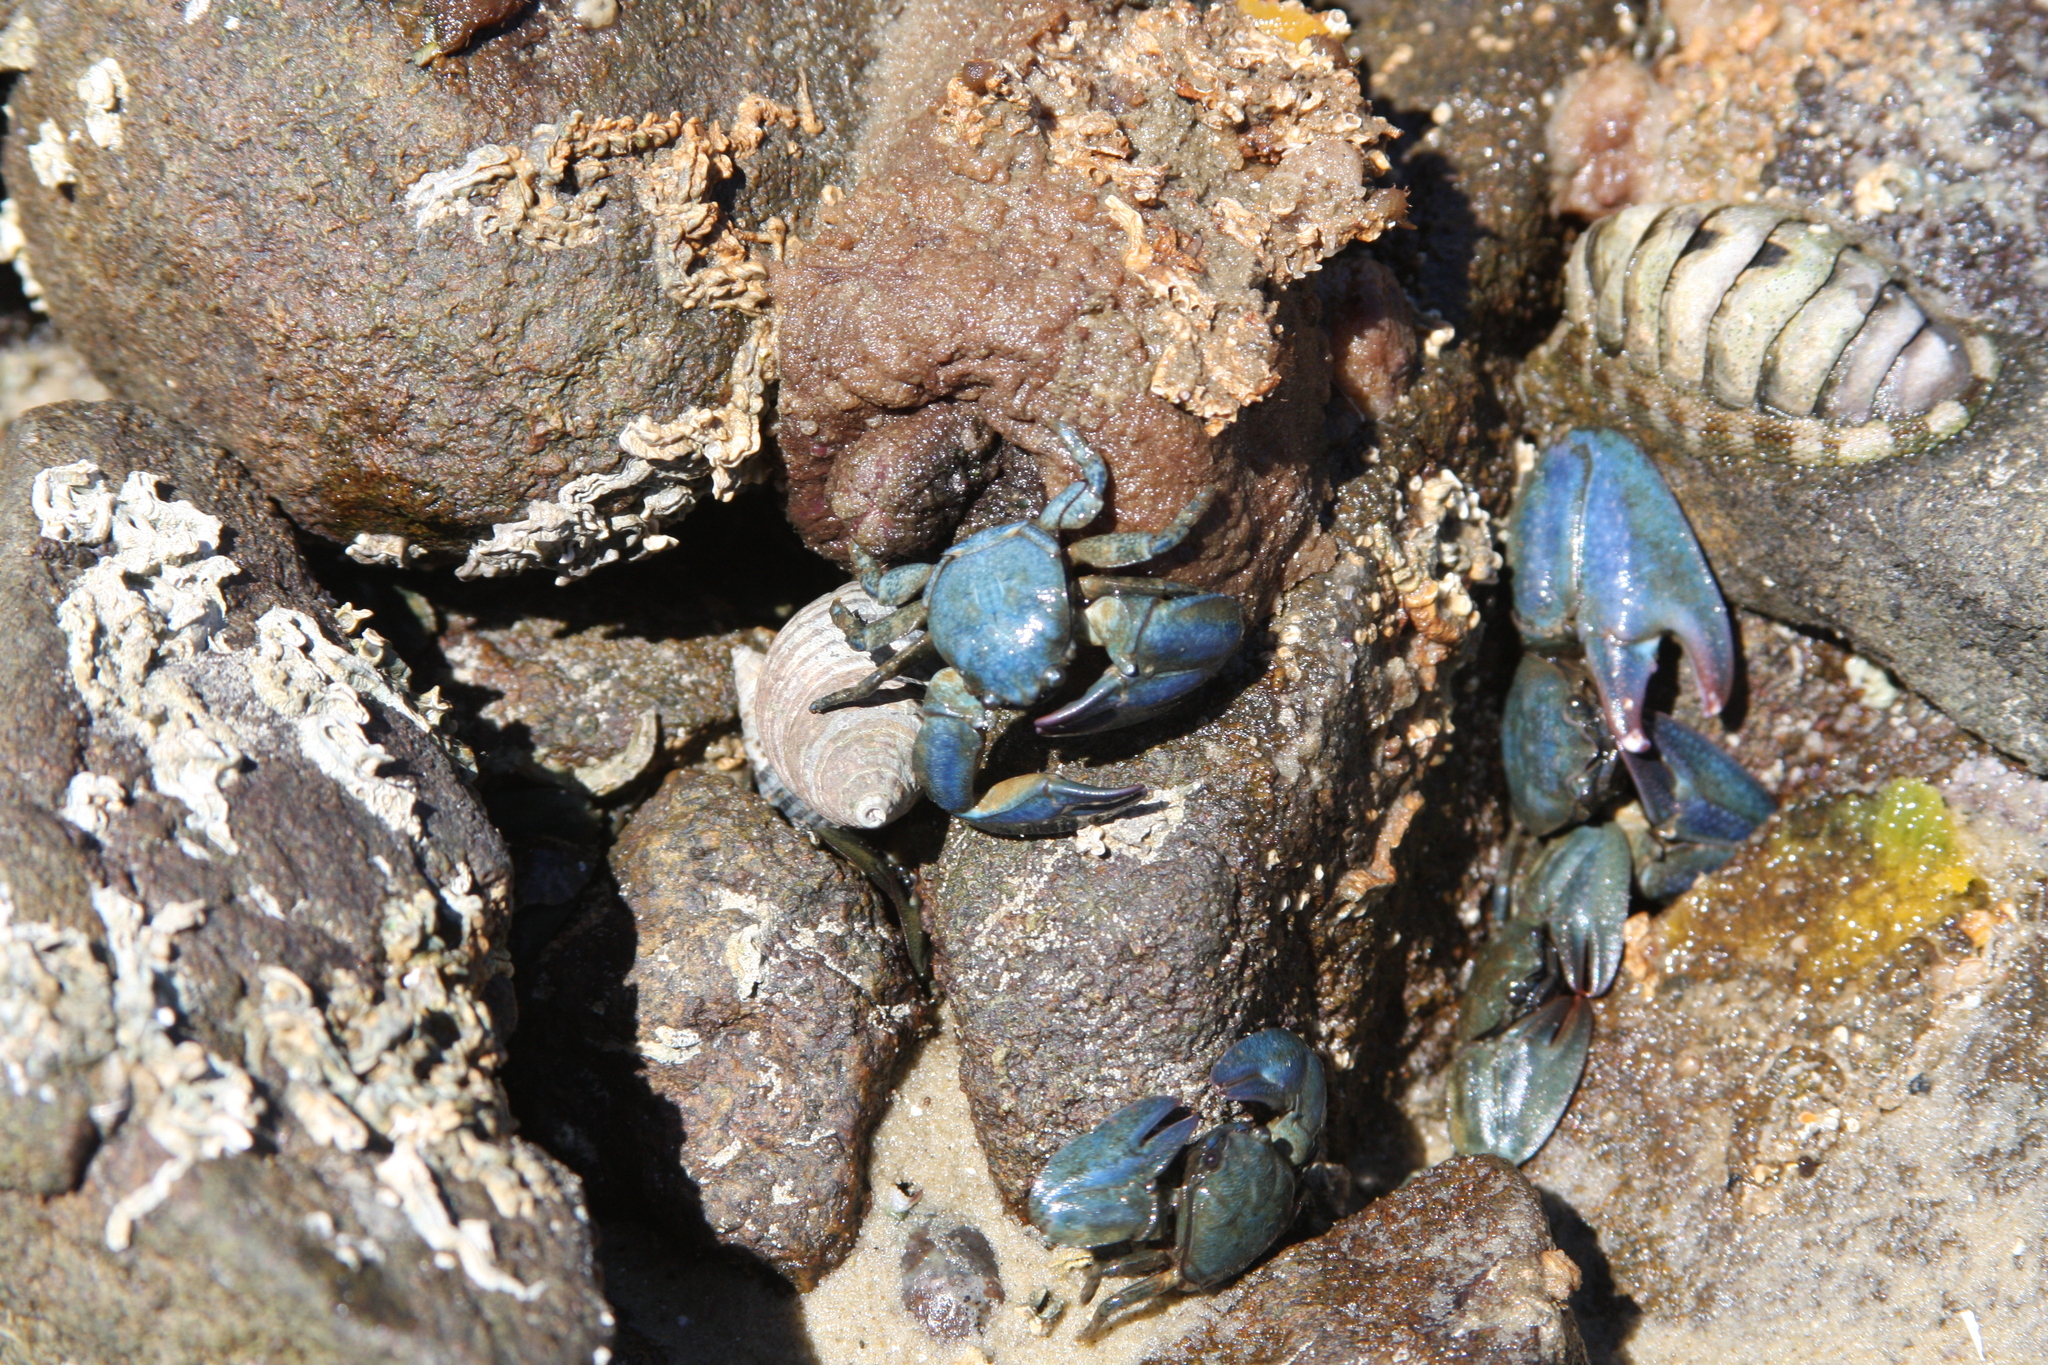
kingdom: Animalia
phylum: Arthropoda
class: Malacostraca
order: Decapoda
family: Porcellanidae
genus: Petrolisthes
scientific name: Petrolisthes elongatus
